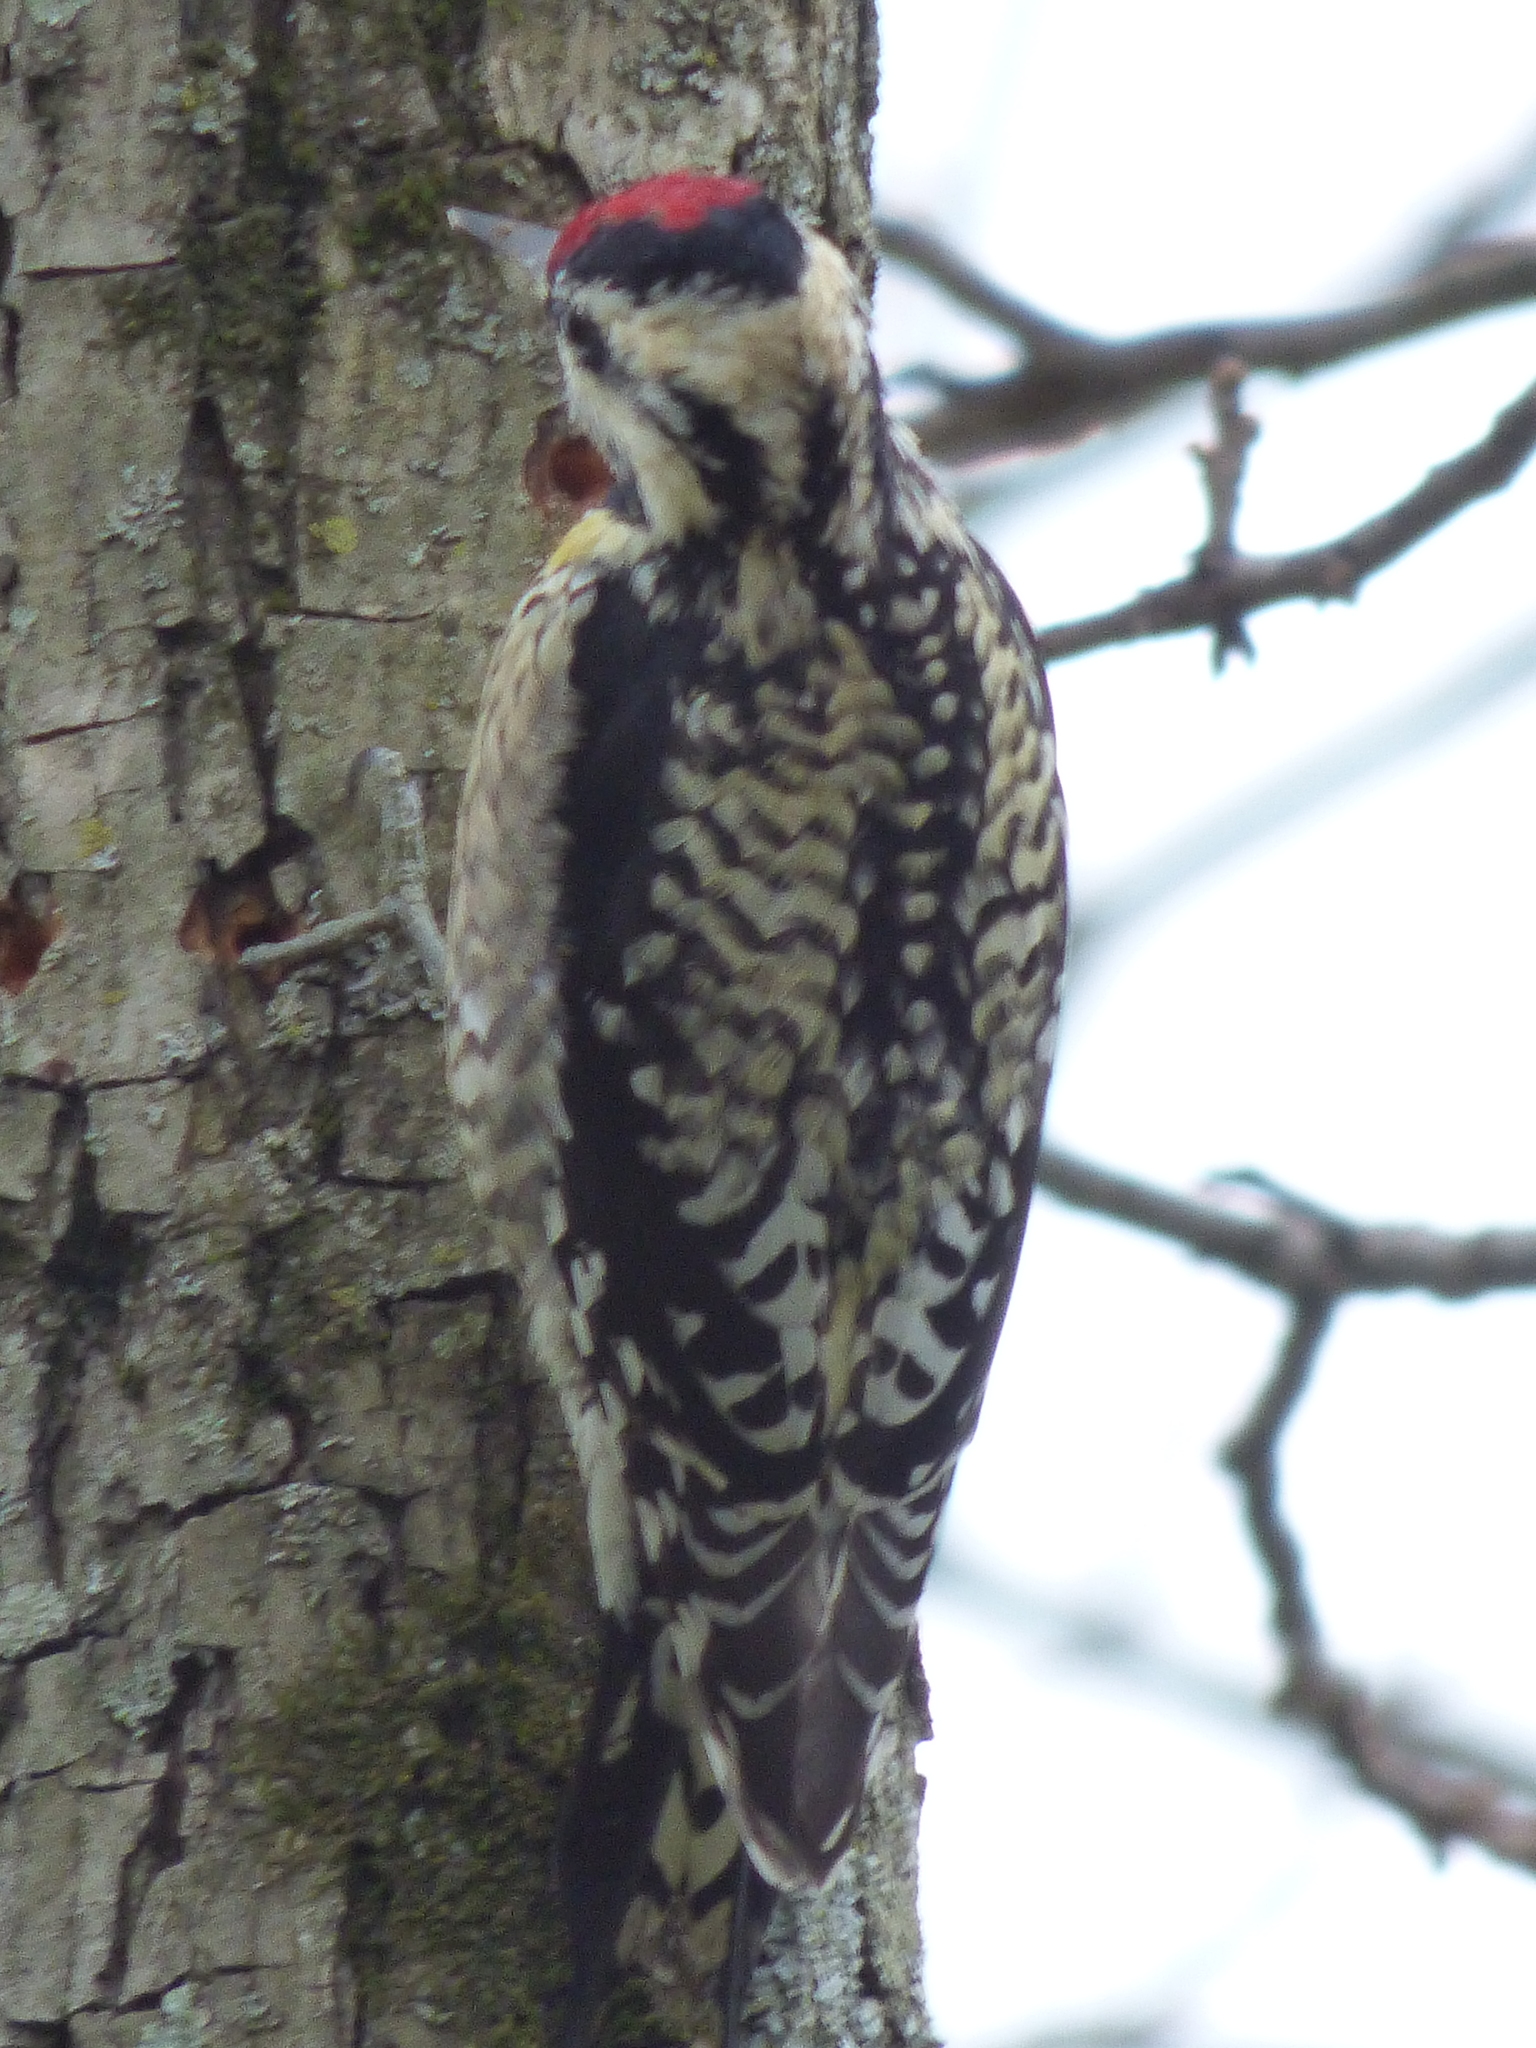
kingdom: Animalia
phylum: Chordata
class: Aves
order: Piciformes
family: Picidae
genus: Sphyrapicus
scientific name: Sphyrapicus varius
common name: Yellow-bellied sapsucker
